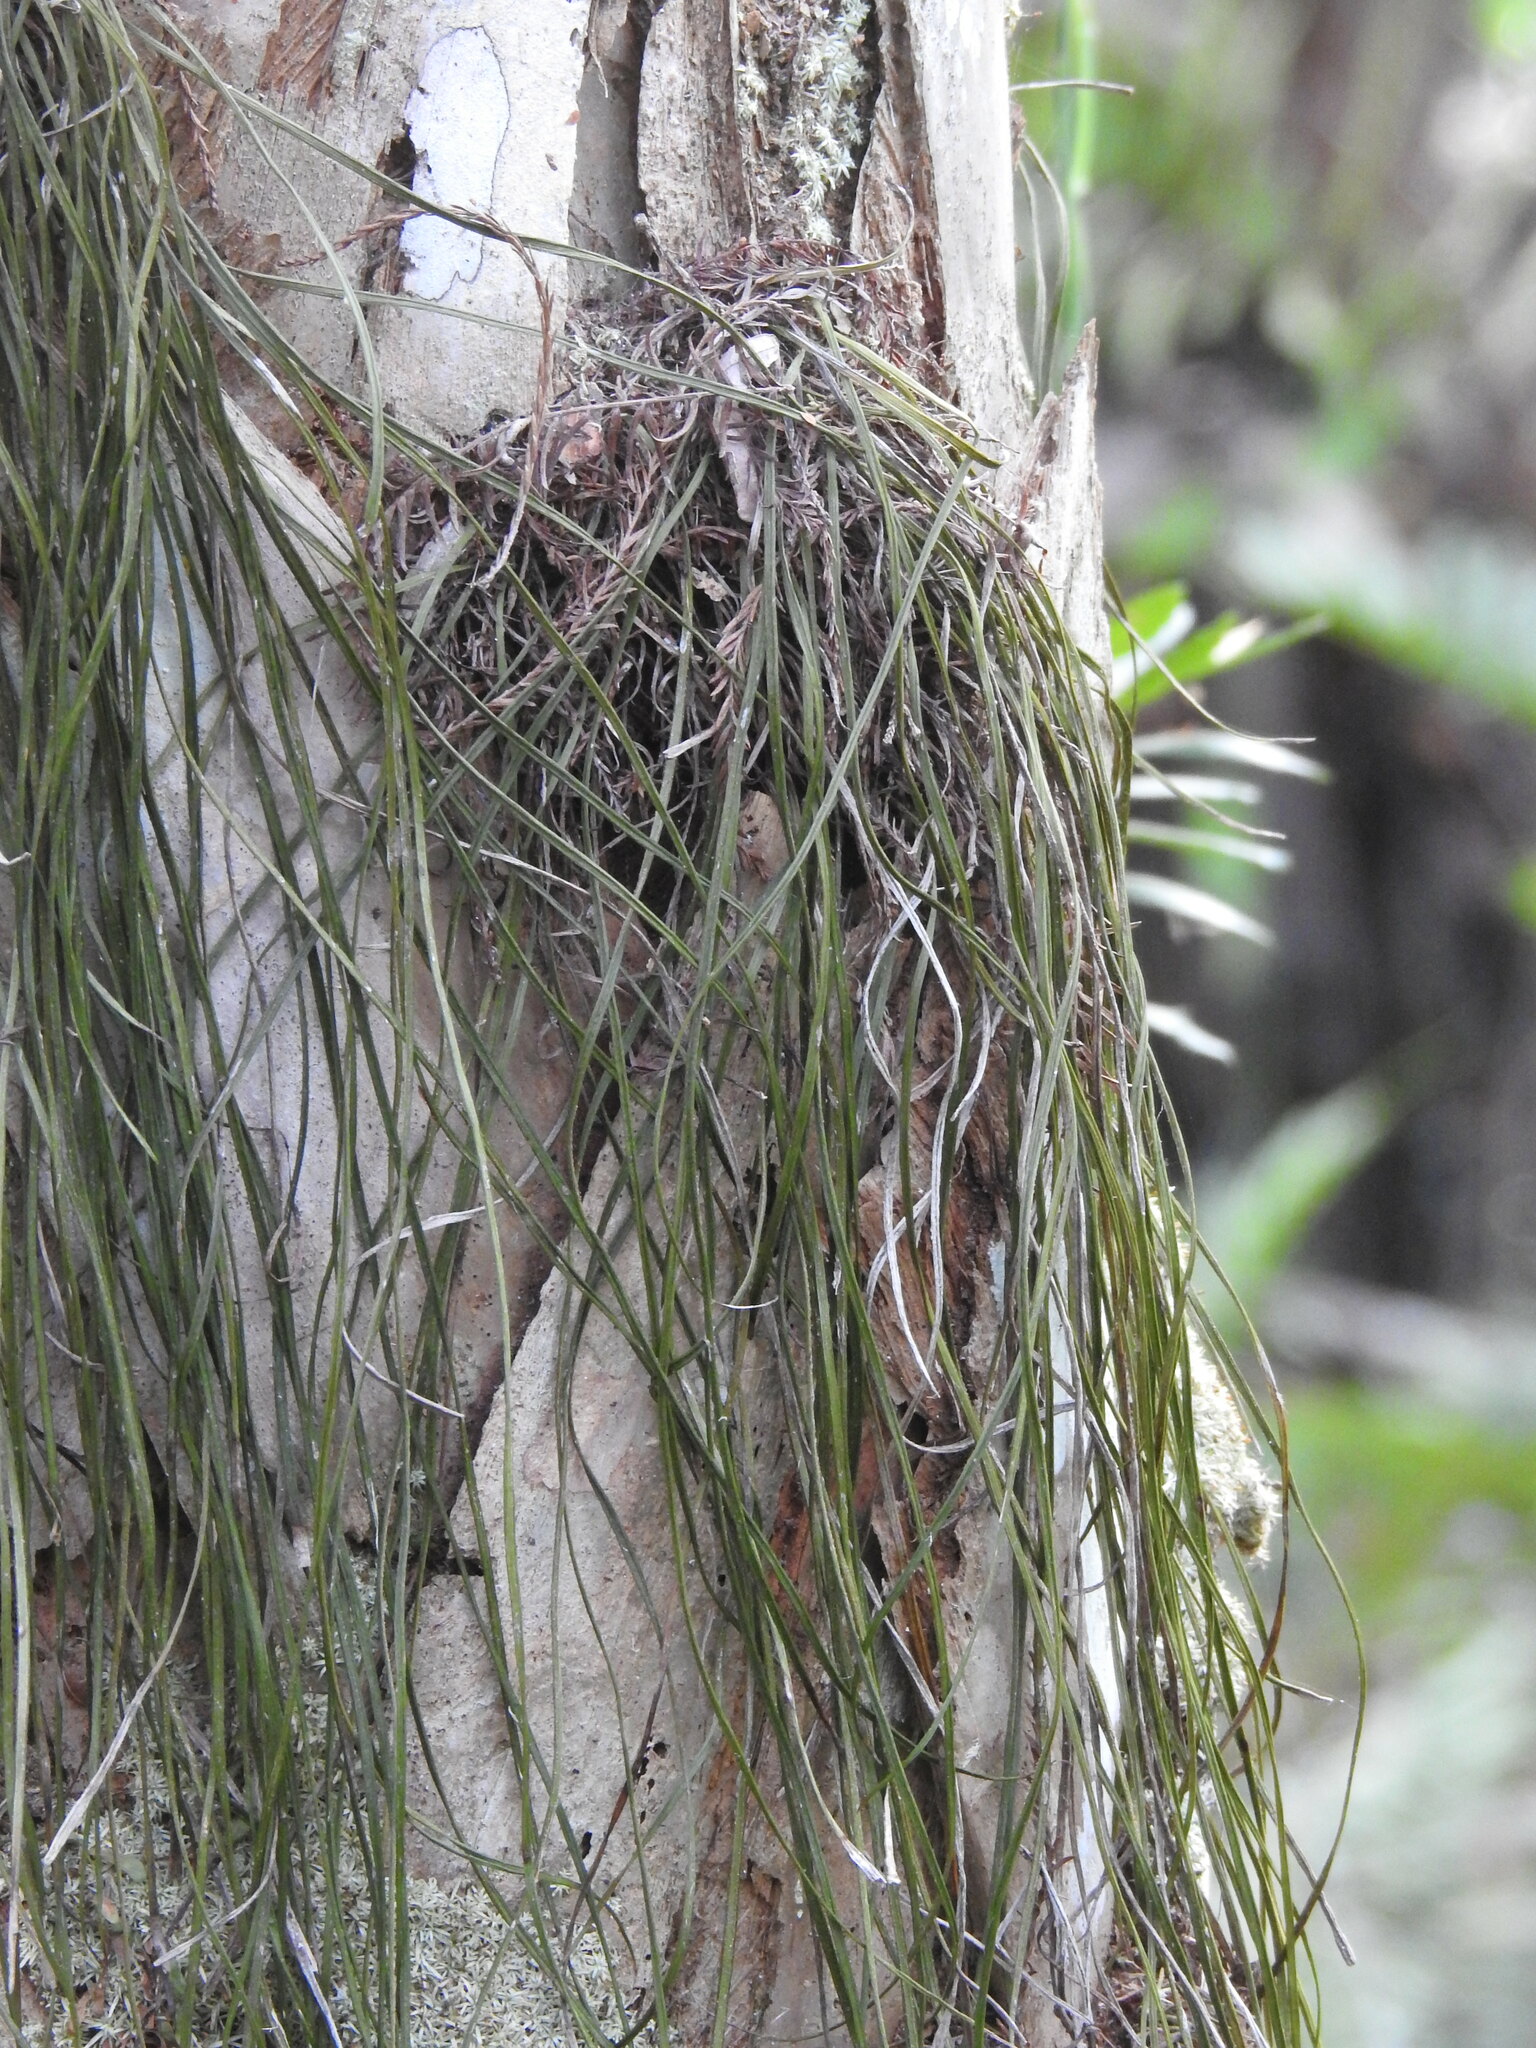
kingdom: Plantae
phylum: Tracheophyta
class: Polypodiopsida
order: Polypodiales
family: Pteridaceae
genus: Vittaria
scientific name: Vittaria lineata
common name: Shoestring fern
